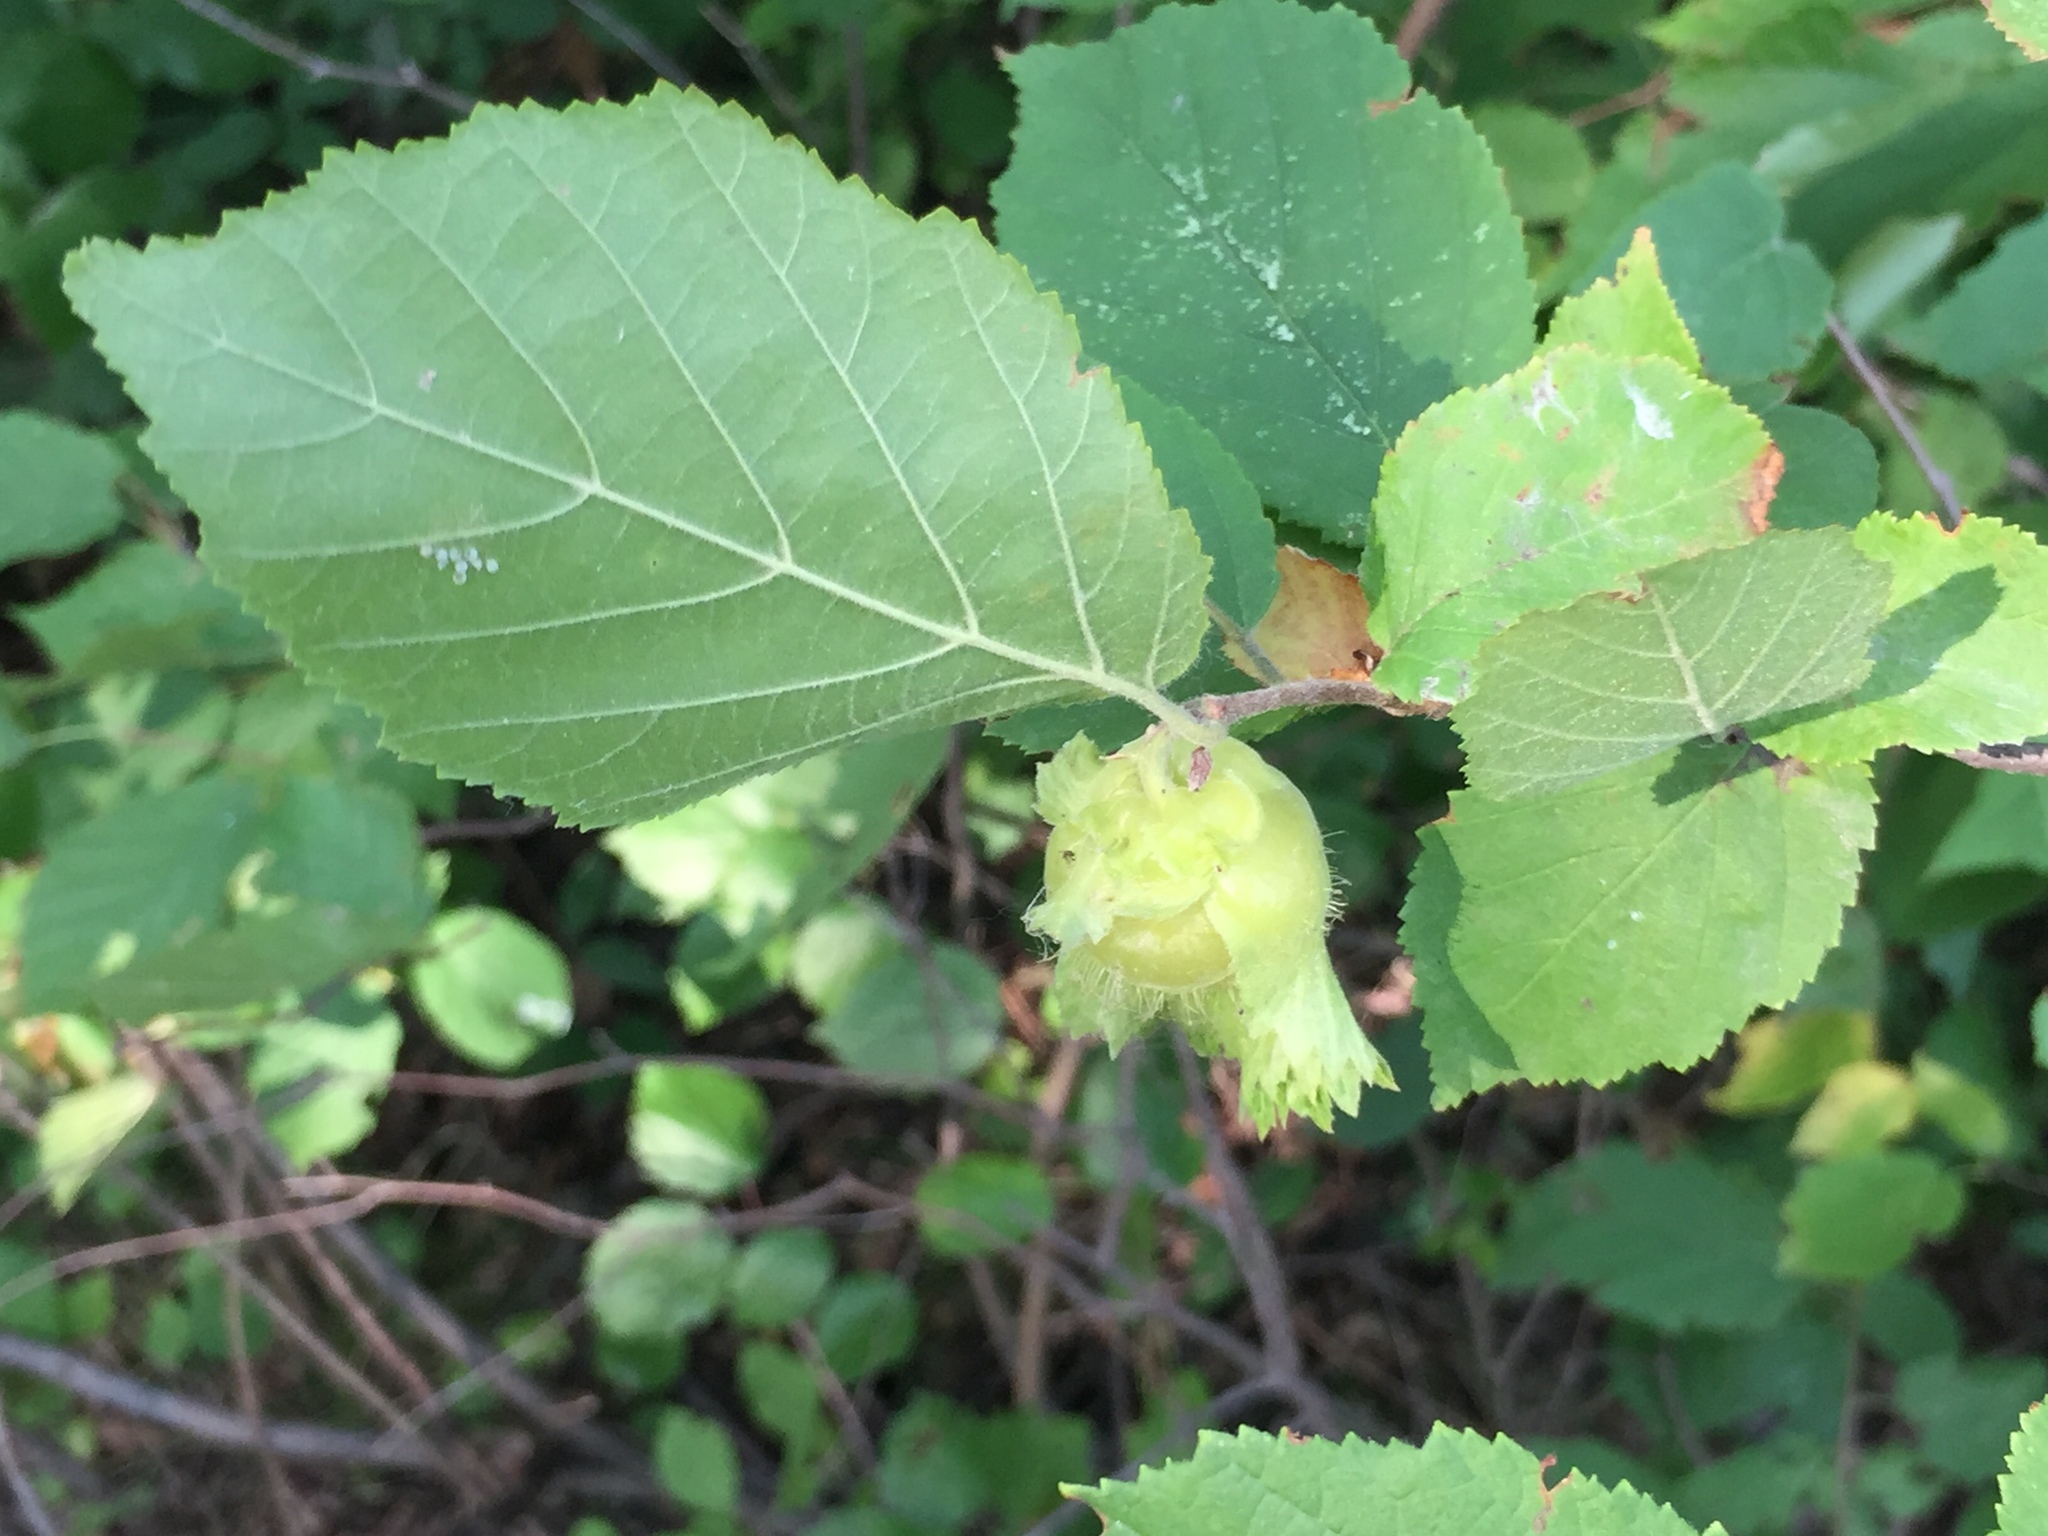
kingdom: Plantae
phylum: Tracheophyta
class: Magnoliopsida
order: Fagales
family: Betulaceae
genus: Corylus
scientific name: Corylus americana
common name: American hazel
